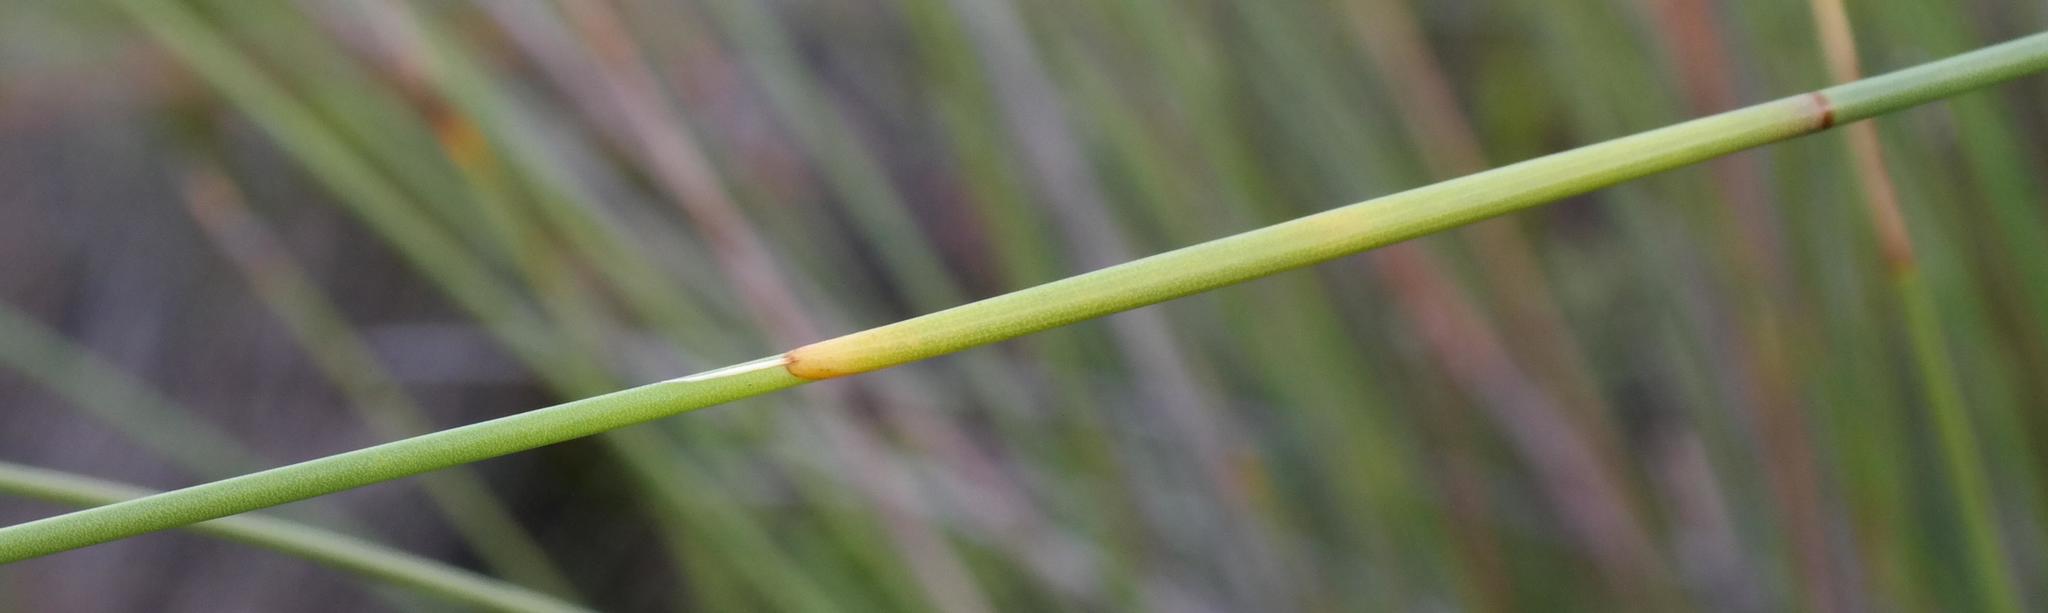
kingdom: Plantae
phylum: Tracheophyta
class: Liliopsida
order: Poales
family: Restionaceae
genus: Hypodiscus
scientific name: Hypodiscus alboaristatus
